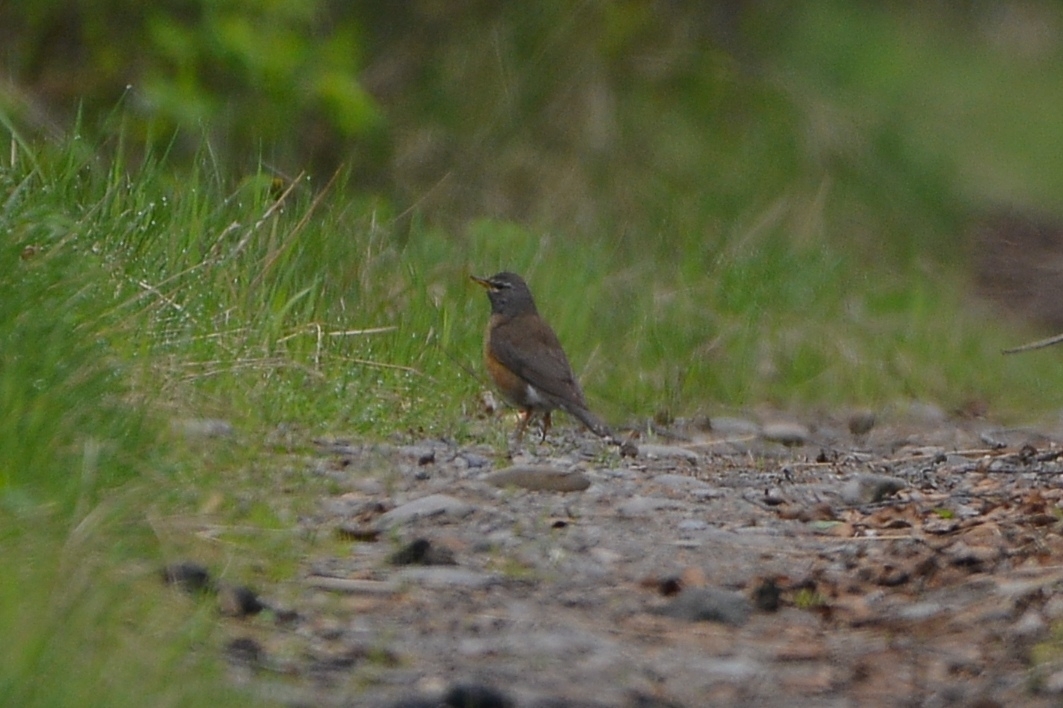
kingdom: Animalia
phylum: Chordata
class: Aves
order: Passeriformes
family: Turdidae
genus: Turdus
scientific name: Turdus obscurus
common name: Eyebrowed thrush
